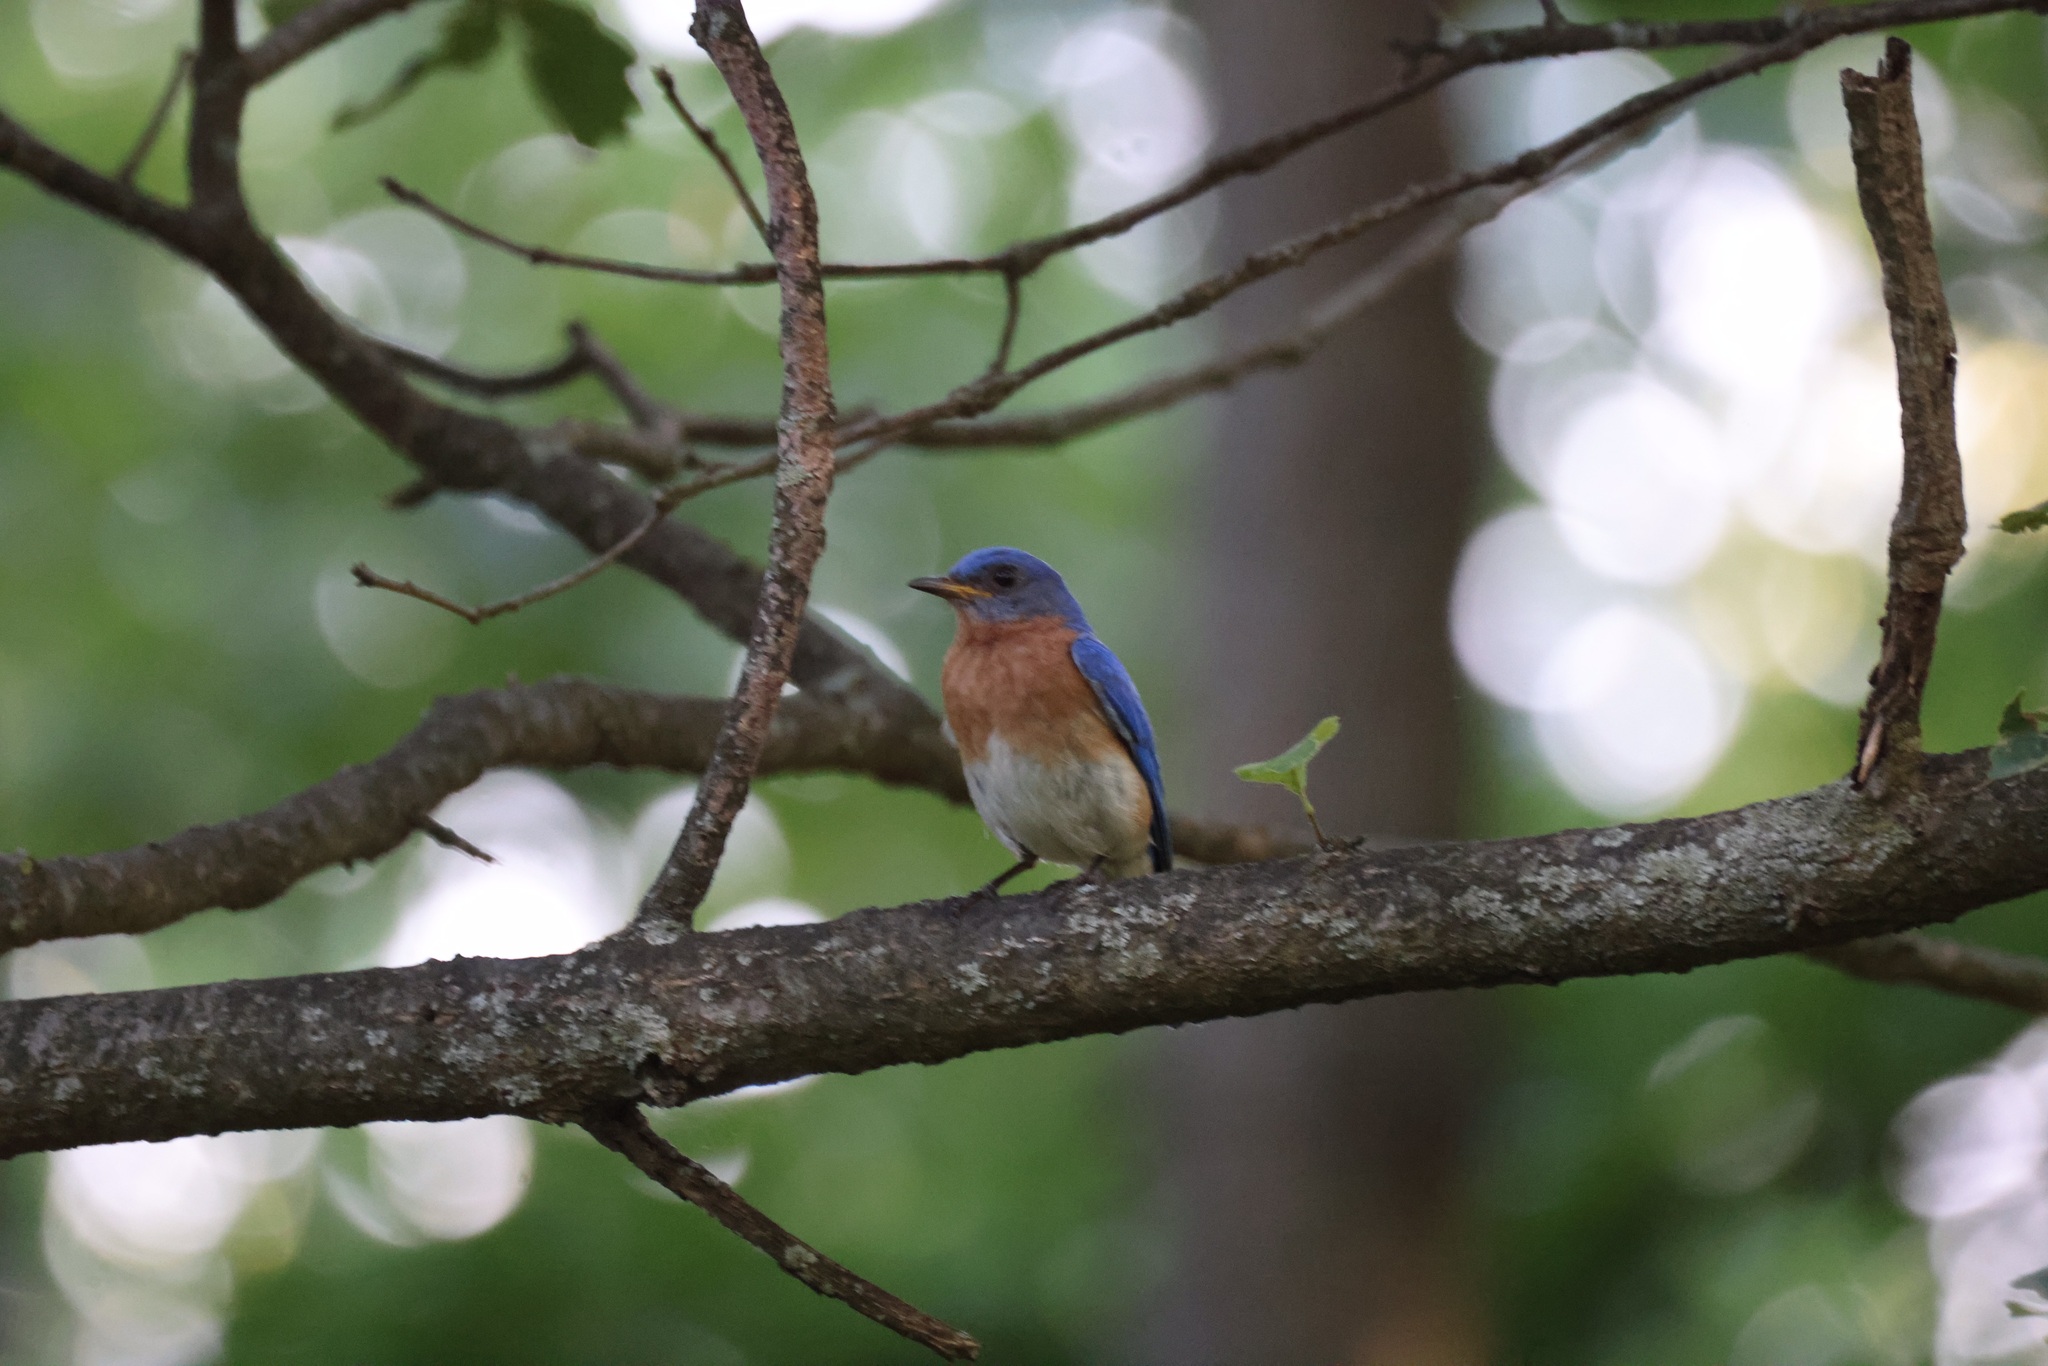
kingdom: Animalia
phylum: Chordata
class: Aves
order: Passeriformes
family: Turdidae
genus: Sialia
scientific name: Sialia sialis
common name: Eastern bluebird
